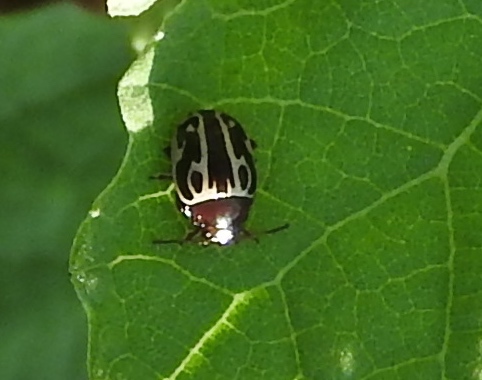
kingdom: Animalia
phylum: Arthropoda
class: Insecta
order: Coleoptera
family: Chrysomelidae
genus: Calligrapha
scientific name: Calligrapha
